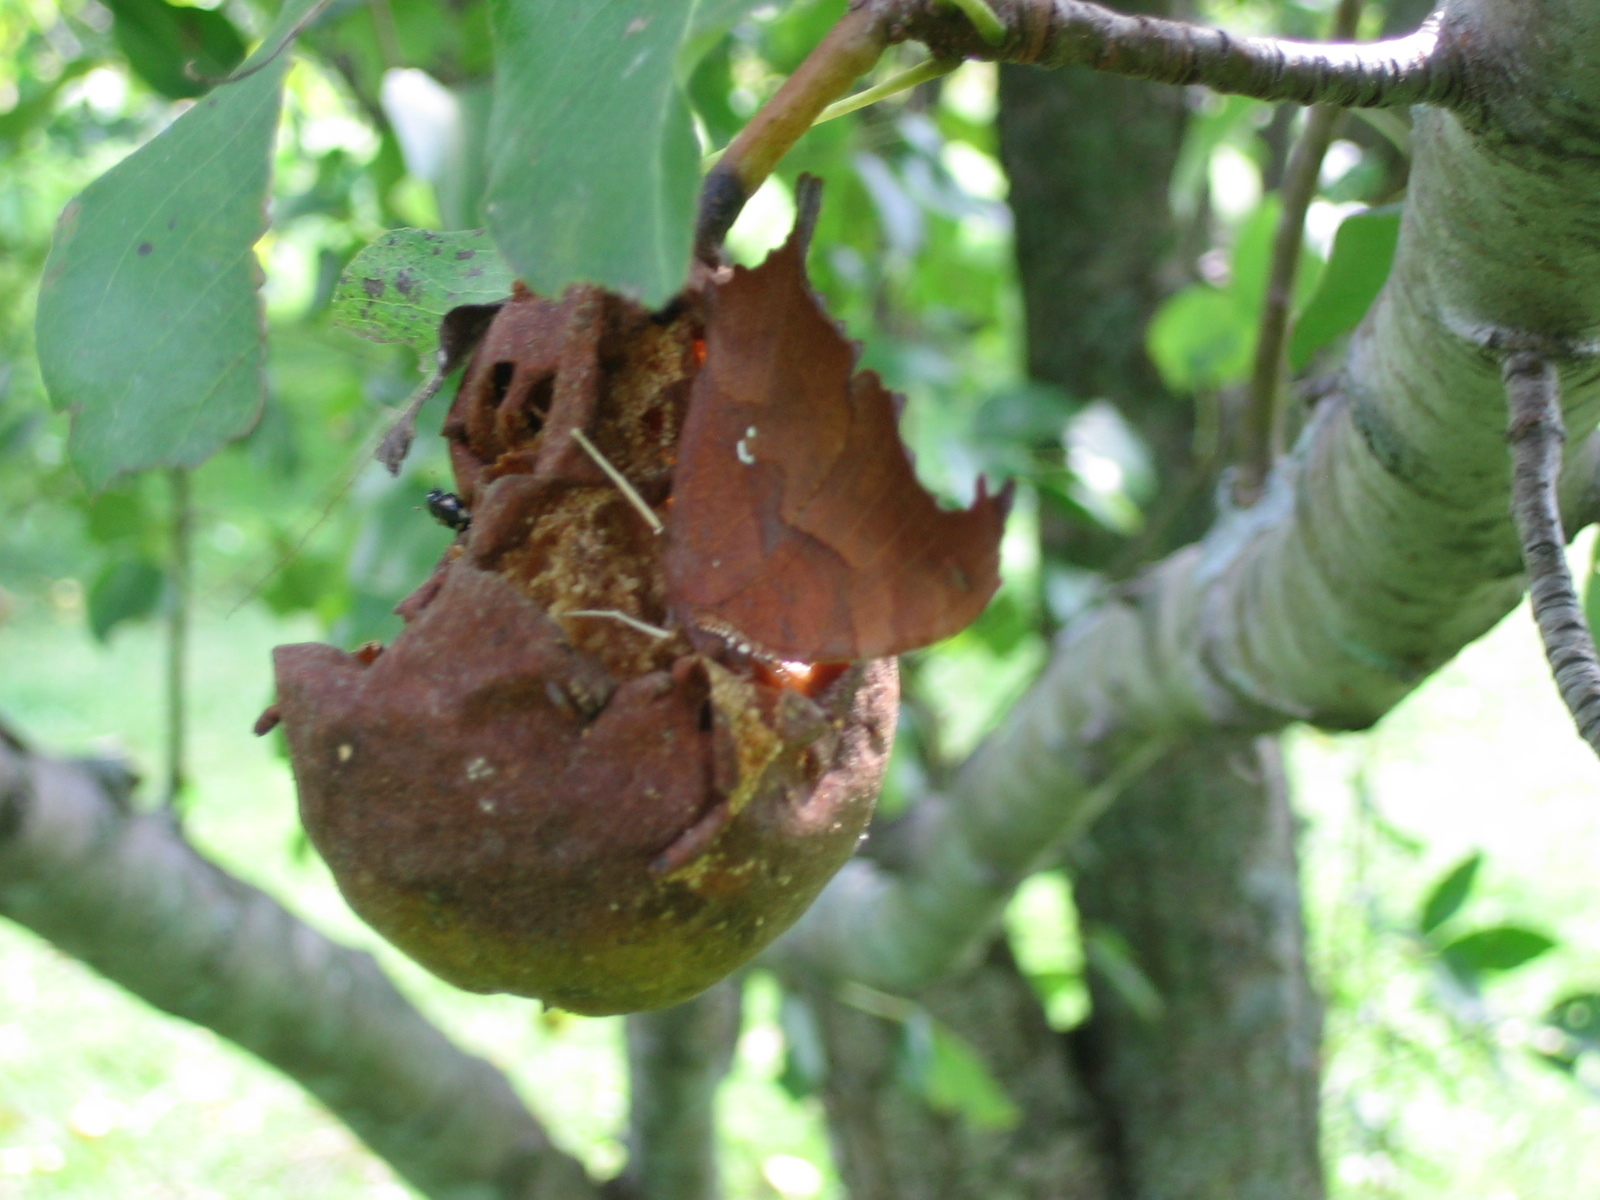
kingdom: Animalia
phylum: Arthropoda
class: Insecta
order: Lepidoptera
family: Nymphalidae
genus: Polygonia
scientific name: Polygonia interrogationis
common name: Question mark
